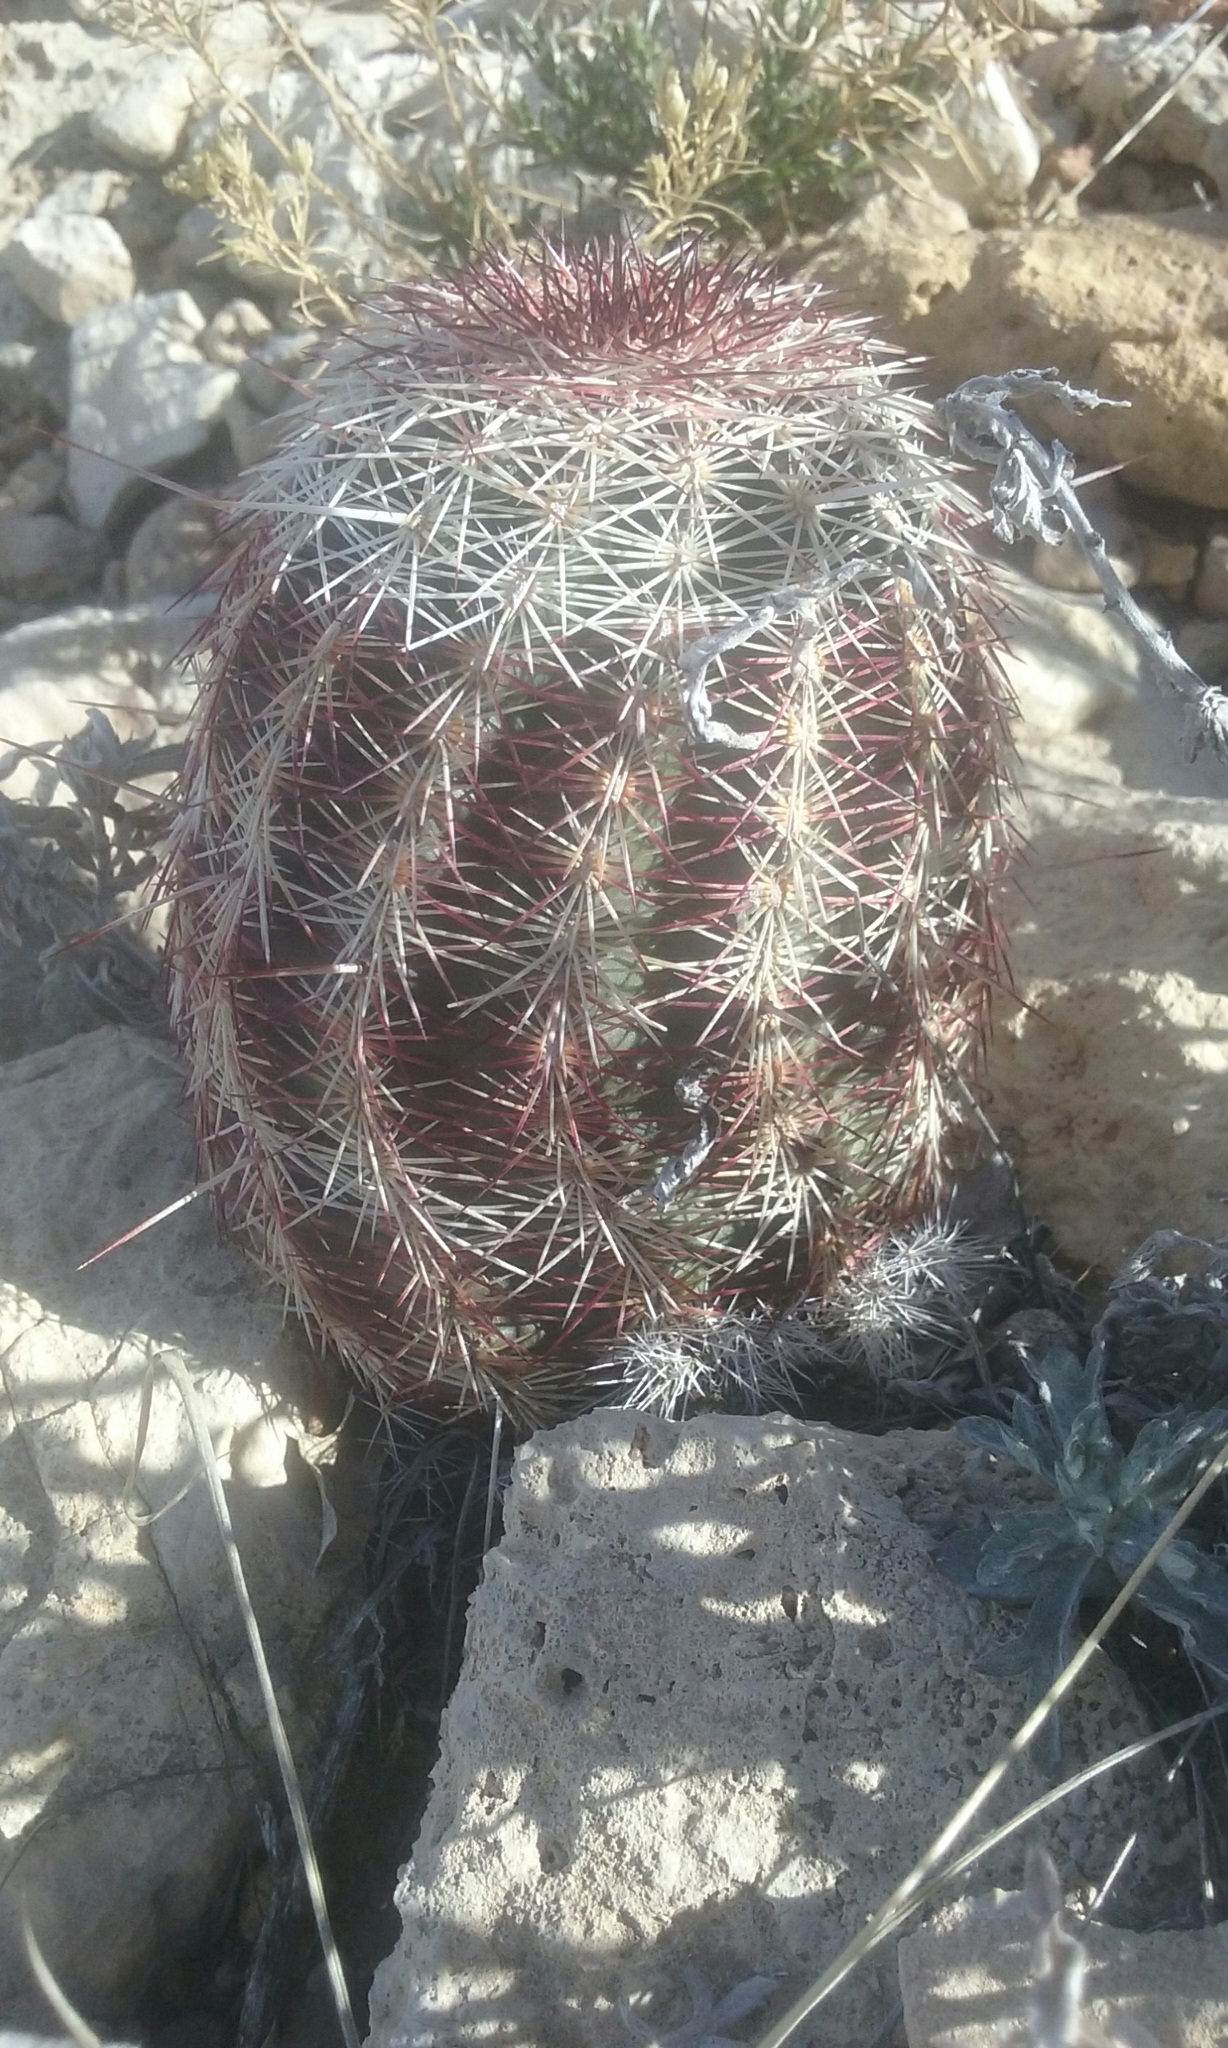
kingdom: Plantae
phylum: Tracheophyta
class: Magnoliopsida
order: Caryophyllales
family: Cactaceae
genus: Echinocereus
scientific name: Echinocereus viridiflorus
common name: Nylon hedgehog cactus
